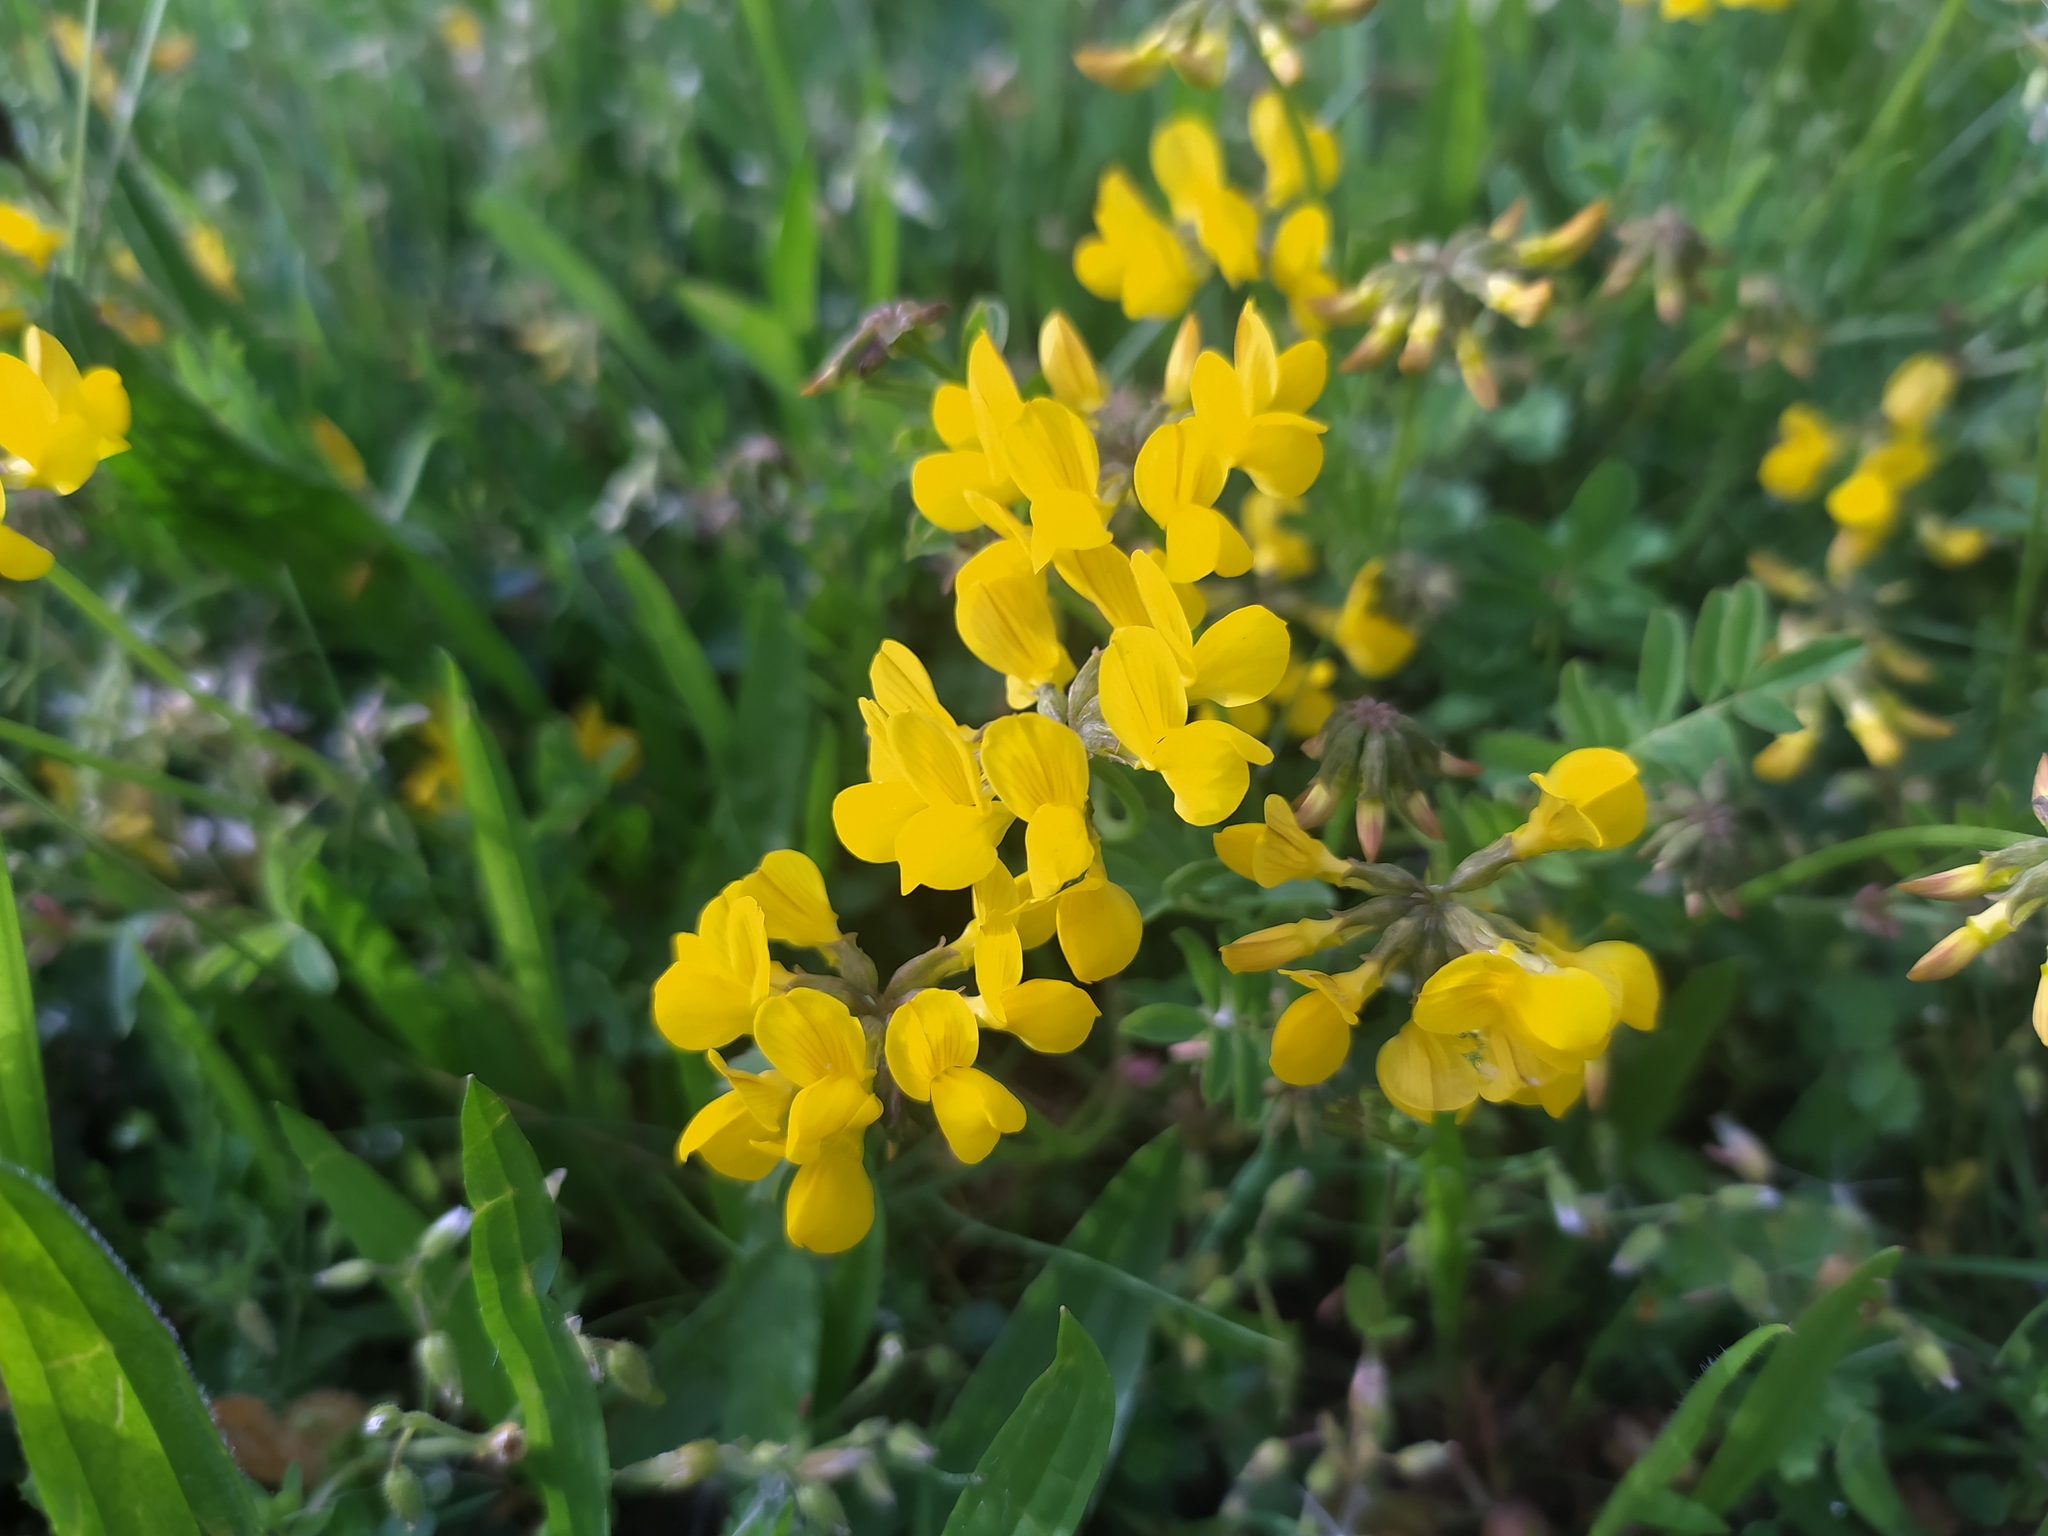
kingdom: Plantae
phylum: Tracheophyta
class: Magnoliopsida
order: Fabales
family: Fabaceae
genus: Hippocrepis
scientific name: Hippocrepis comosa
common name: Horseshoe vetch
